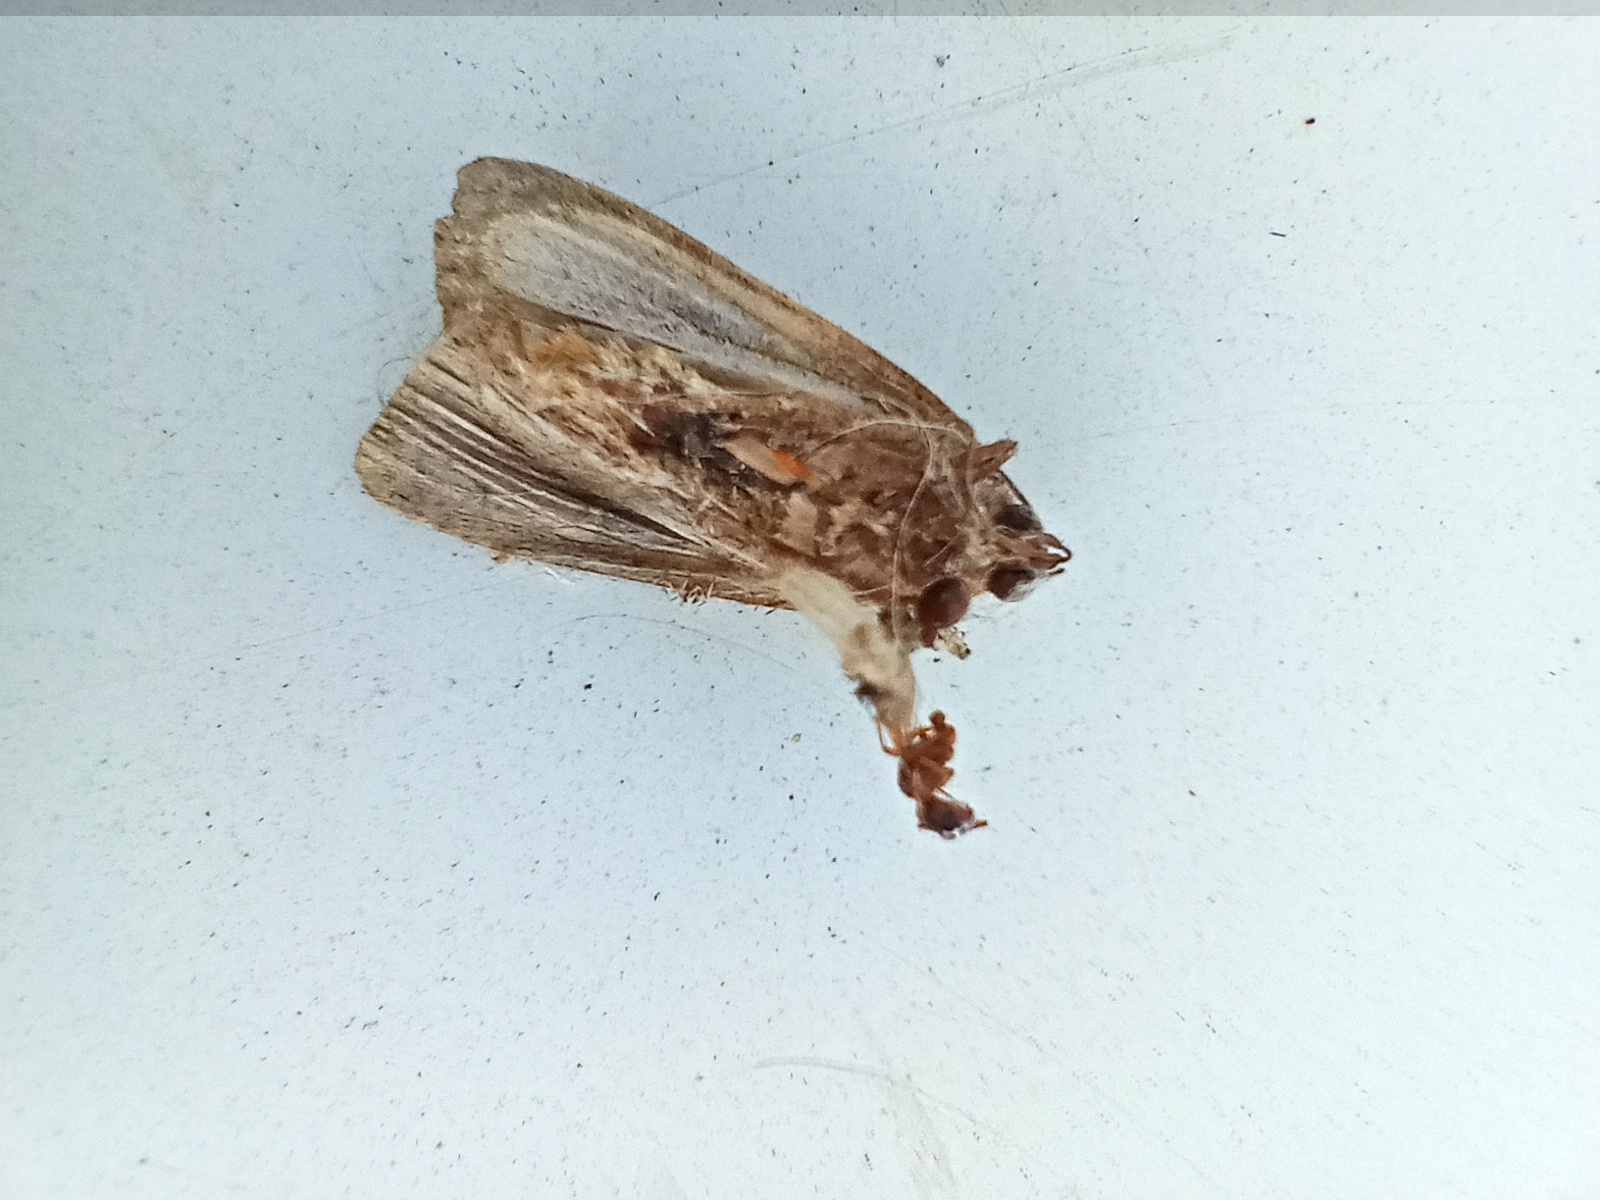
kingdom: Animalia
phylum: Arthropoda
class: Insecta
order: Lepidoptera
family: Noctuidae
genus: Xestia
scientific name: Xestia ditrapezium
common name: Triple-spotted clay
